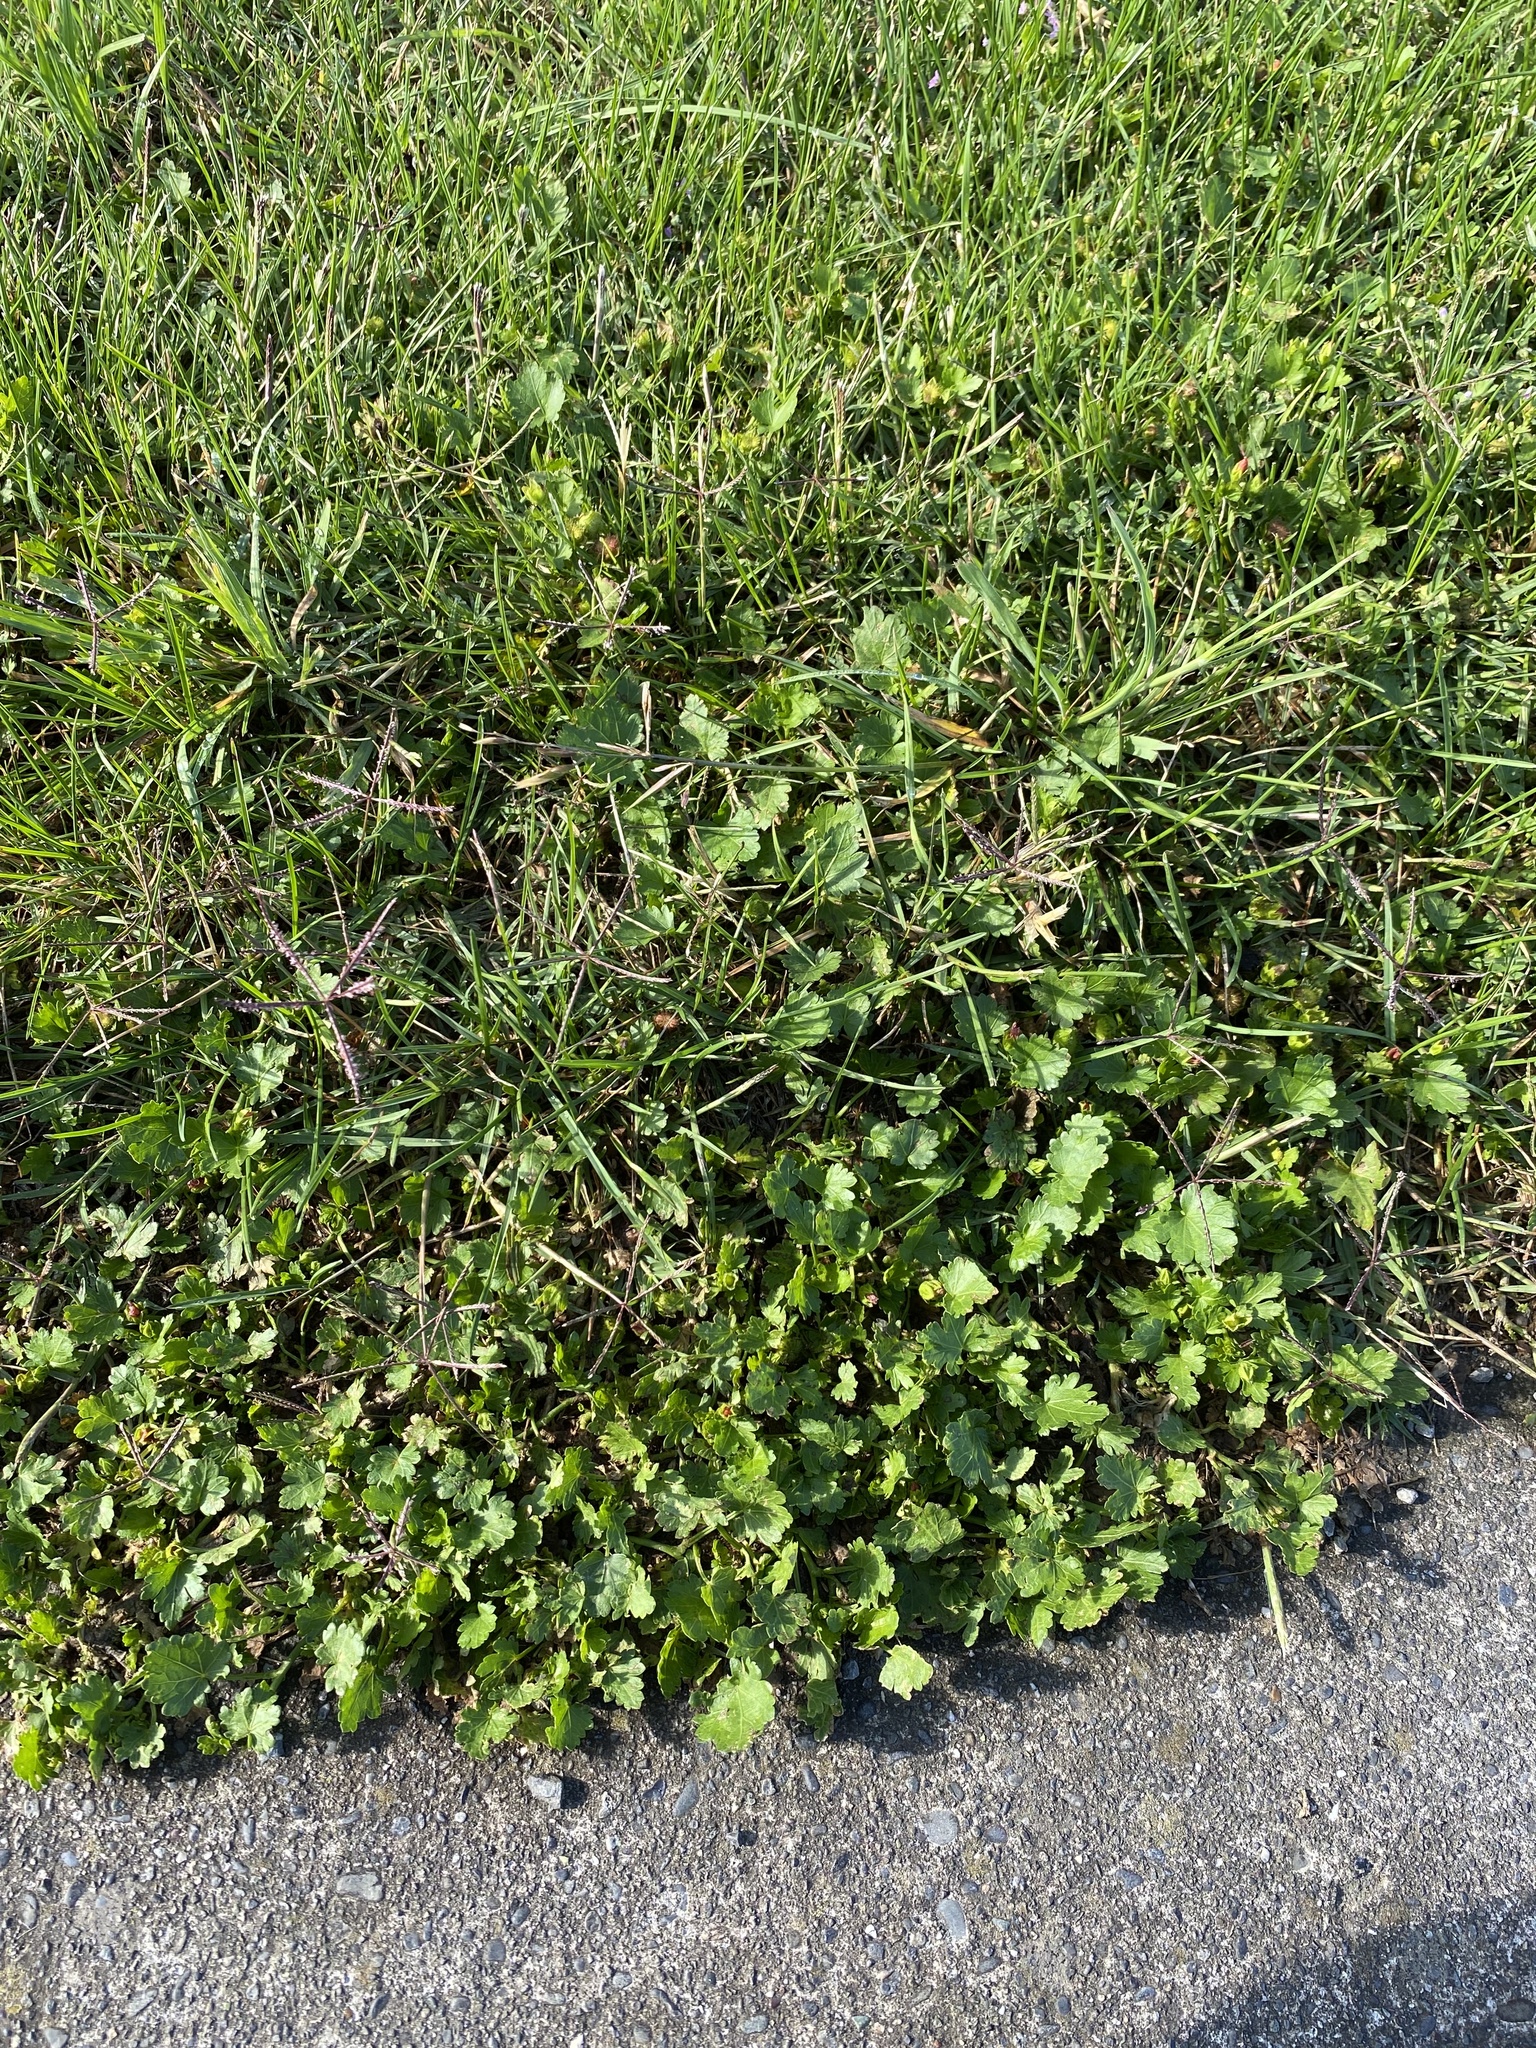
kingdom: Plantae
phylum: Tracheophyta
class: Magnoliopsida
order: Malvales
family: Malvaceae
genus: Modiola
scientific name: Modiola caroliniana
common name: Carolina bristlemallow
